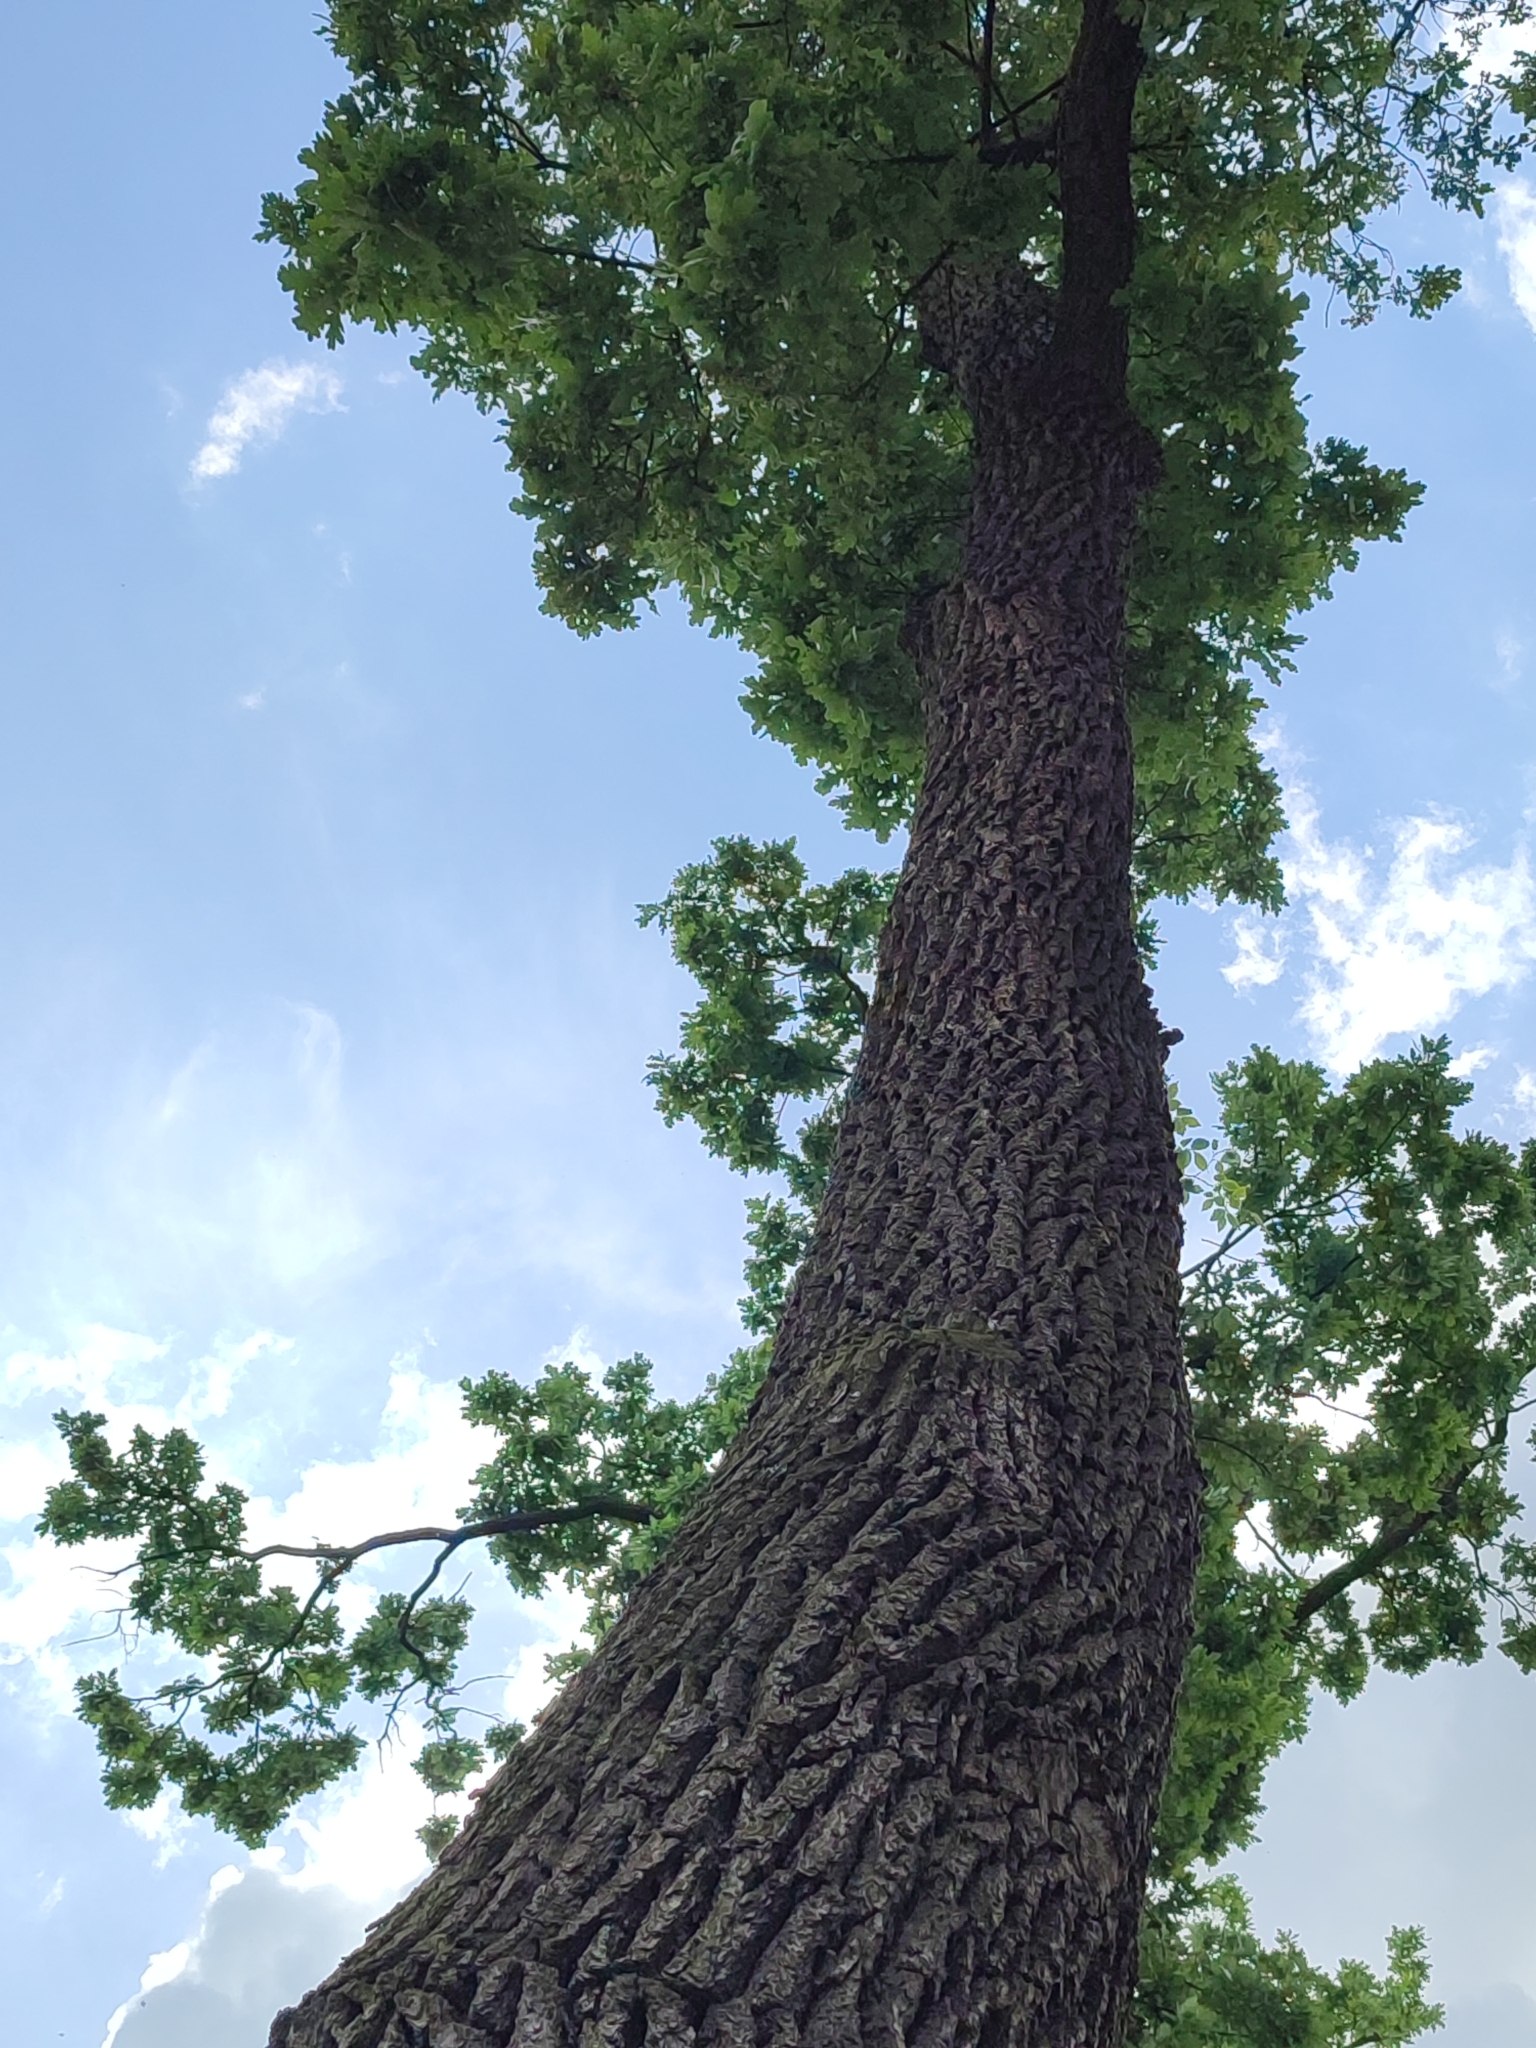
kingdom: Plantae
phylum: Tracheophyta
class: Magnoliopsida
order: Fagales
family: Fagaceae
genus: Quercus
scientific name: Quercus robur
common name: Pedunculate oak
